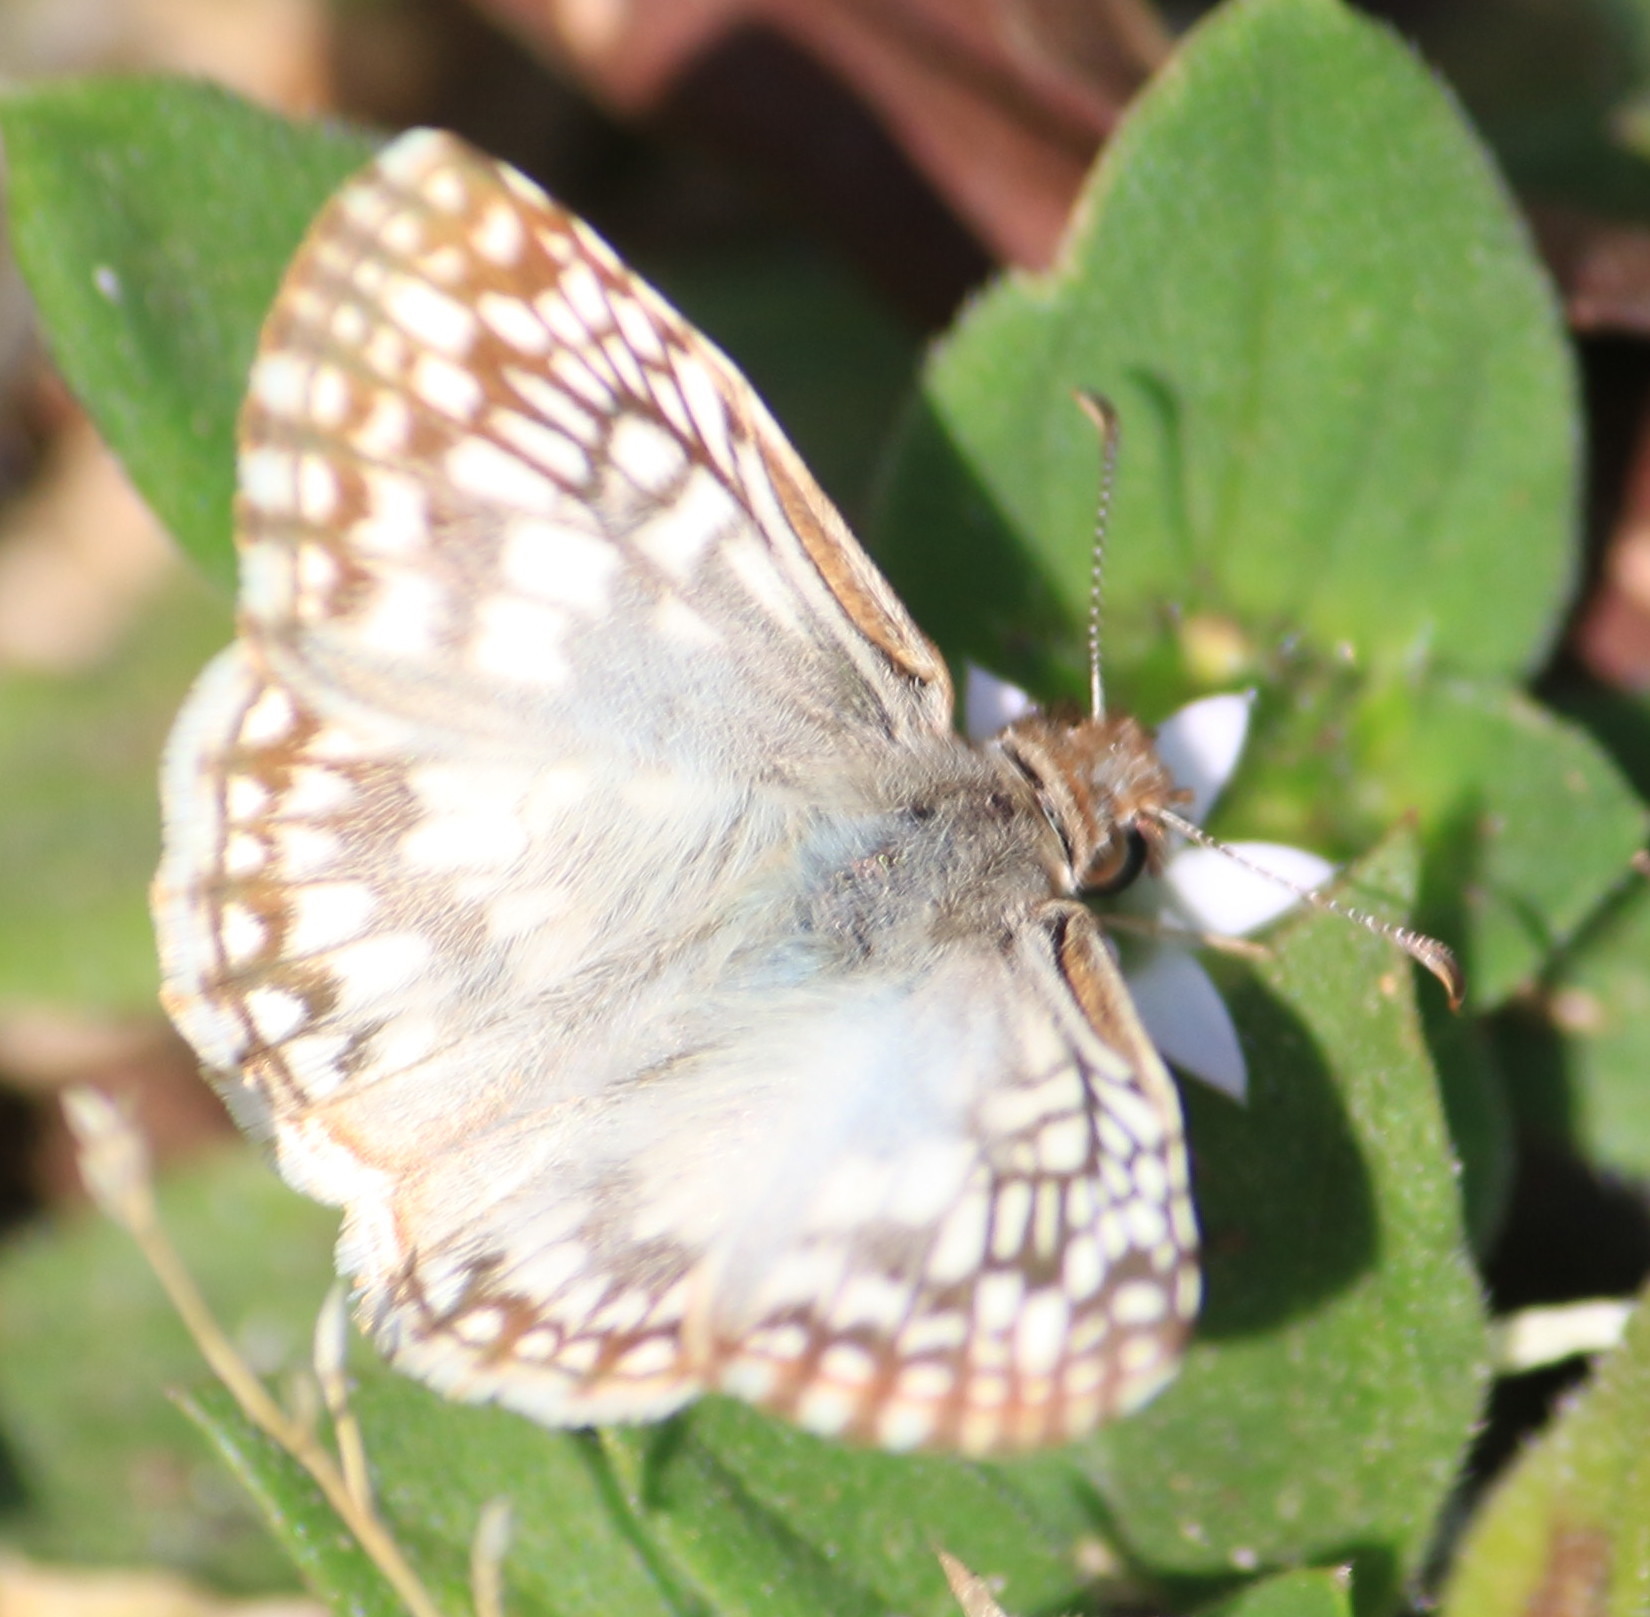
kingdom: Animalia
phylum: Arthropoda
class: Insecta
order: Lepidoptera
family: Hesperiidae
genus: Pyrgus
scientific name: Pyrgus oileus
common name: Tropical checkered-skipper
